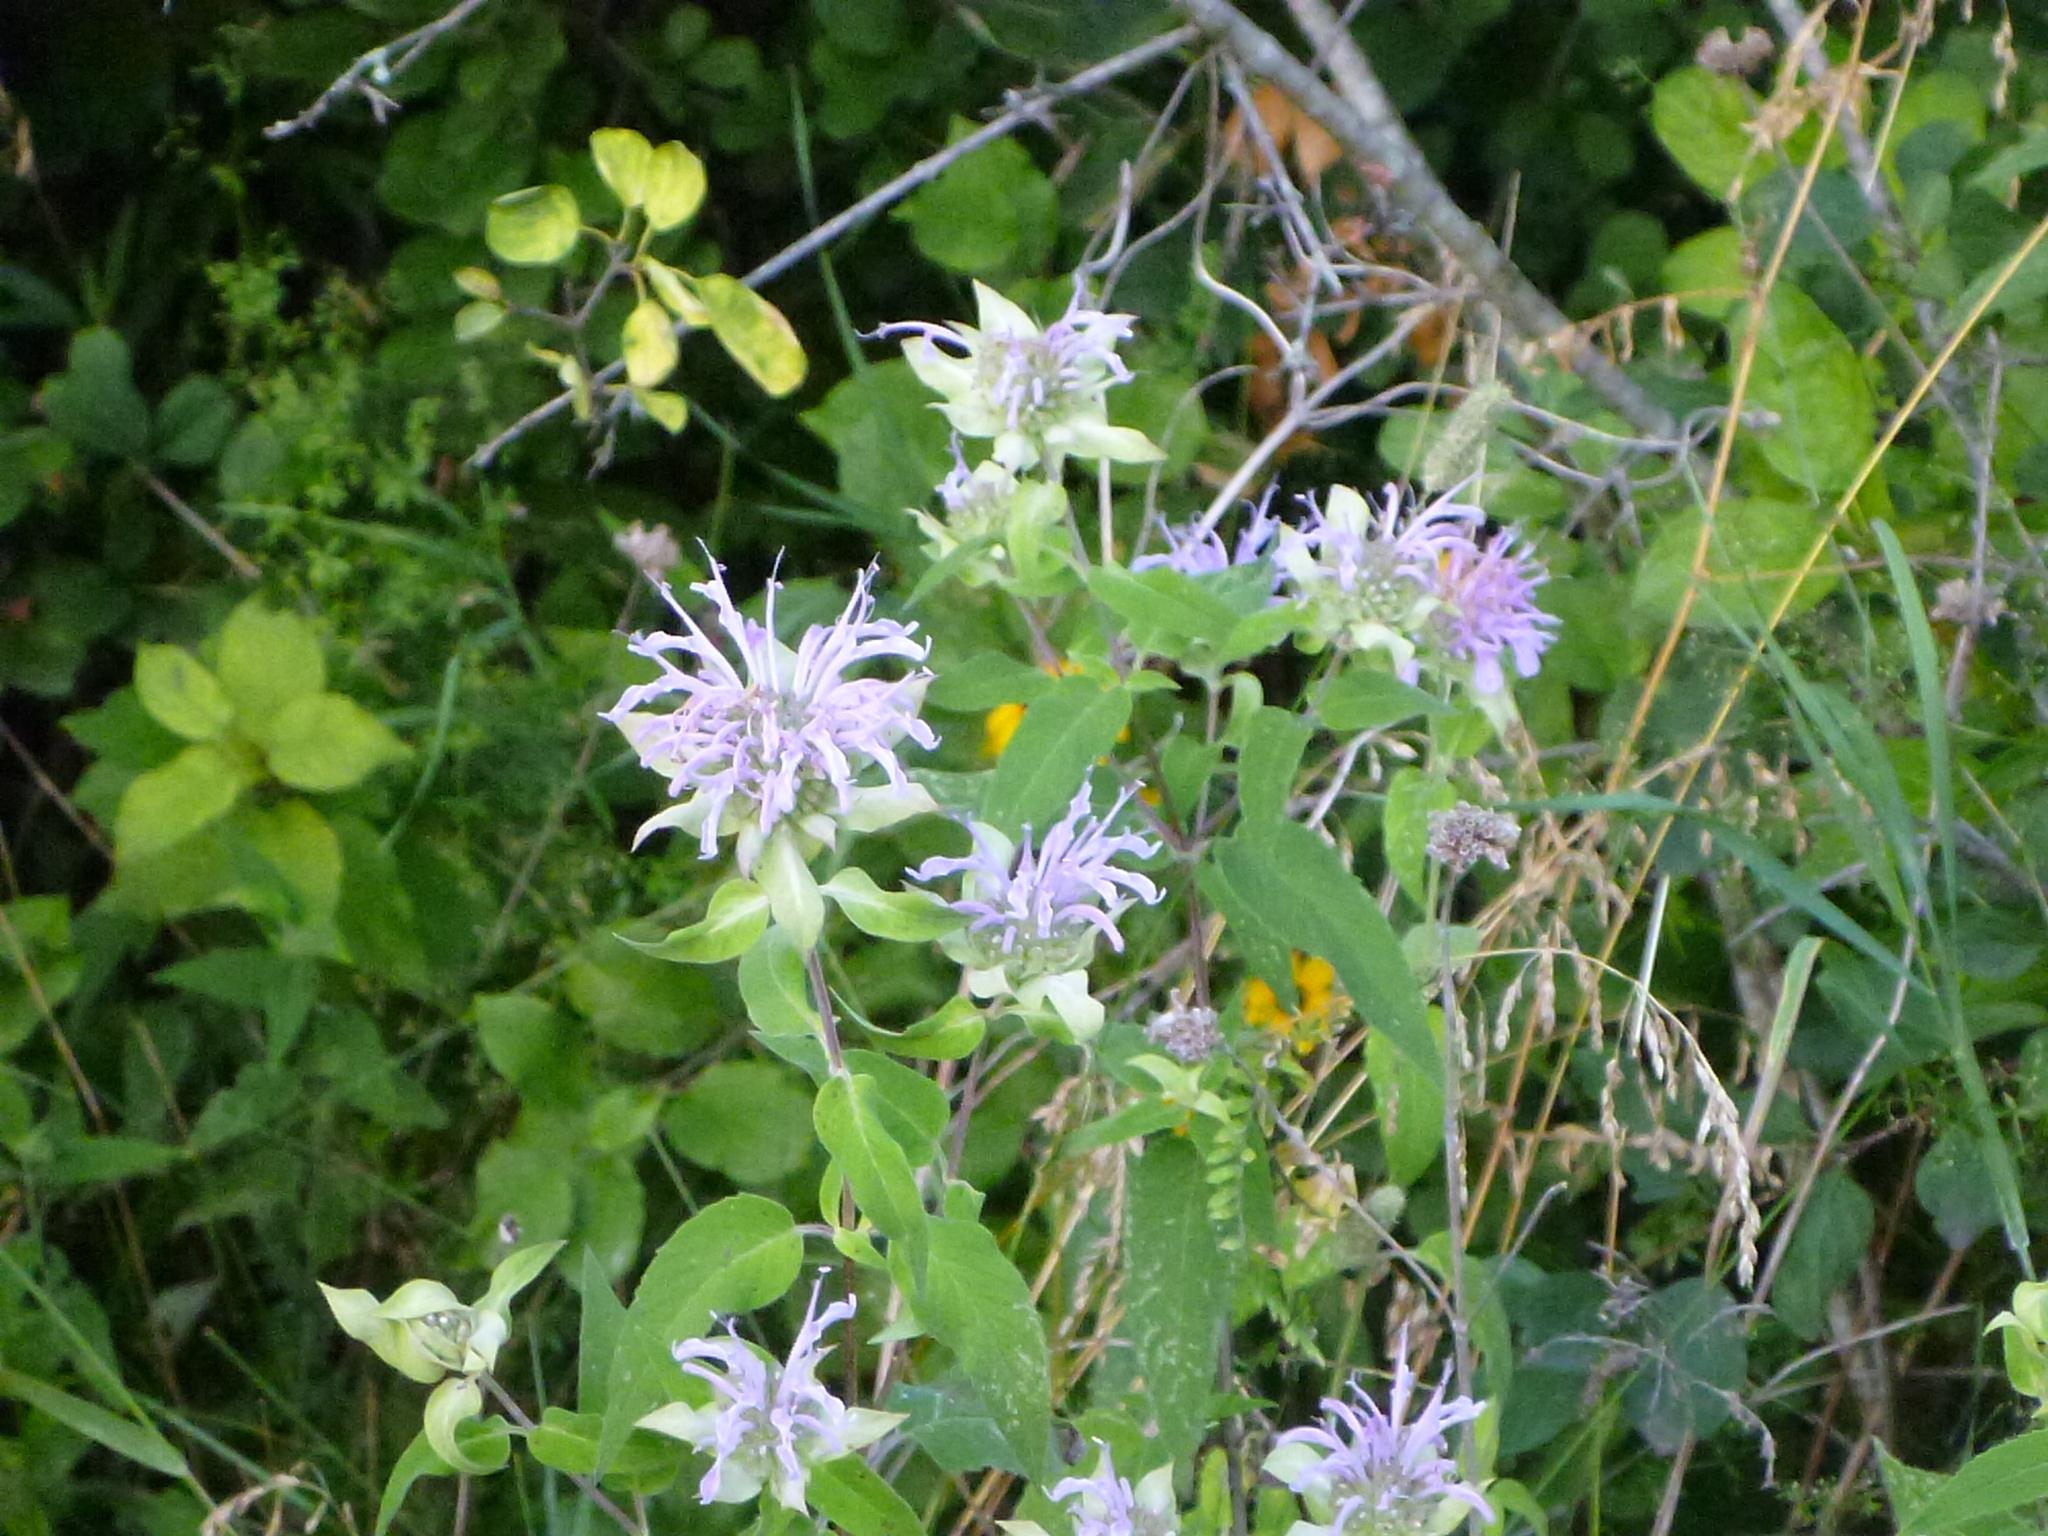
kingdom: Plantae
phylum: Tracheophyta
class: Magnoliopsida
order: Lamiales
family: Lamiaceae
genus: Monarda
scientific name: Monarda fistulosa
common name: Purple beebalm
